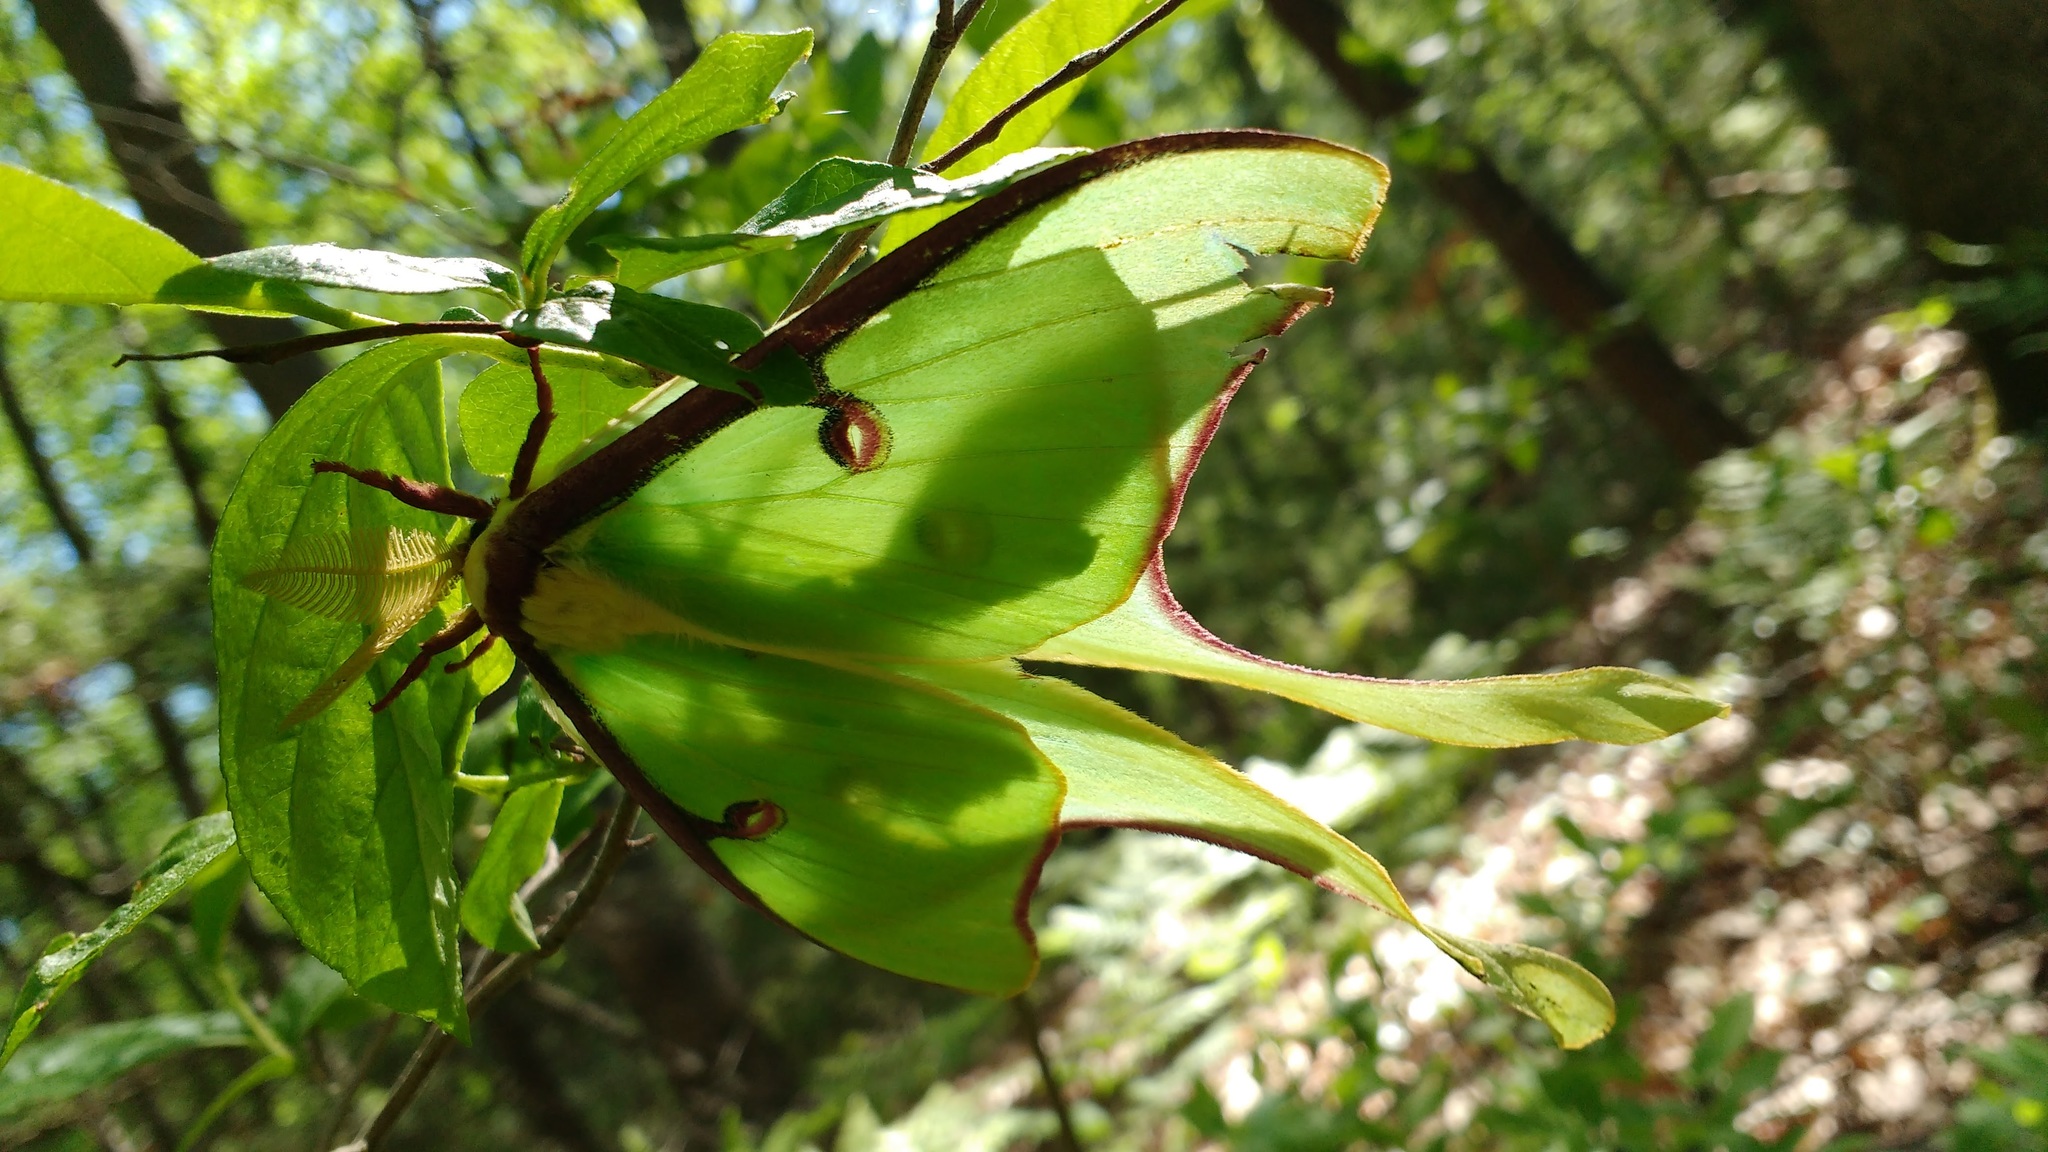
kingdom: Animalia
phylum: Arthropoda
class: Insecta
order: Lepidoptera
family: Saturniidae
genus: Actias
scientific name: Actias luna
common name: Luna moth
